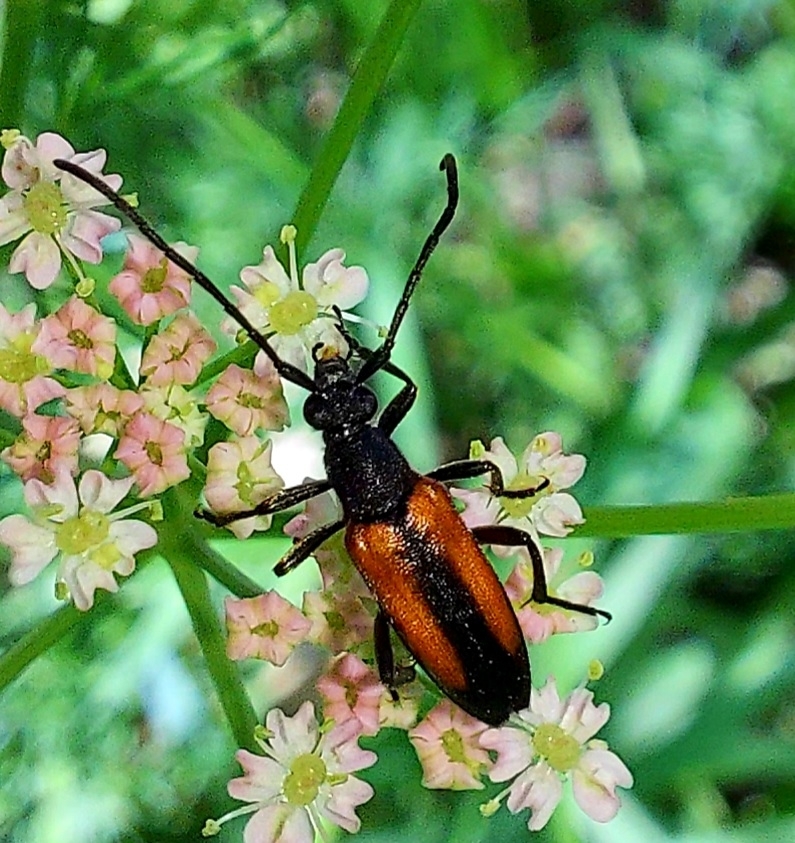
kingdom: Animalia
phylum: Arthropoda
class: Insecta
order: Coleoptera
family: Cerambycidae
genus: Stenurella
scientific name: Stenurella melanura
